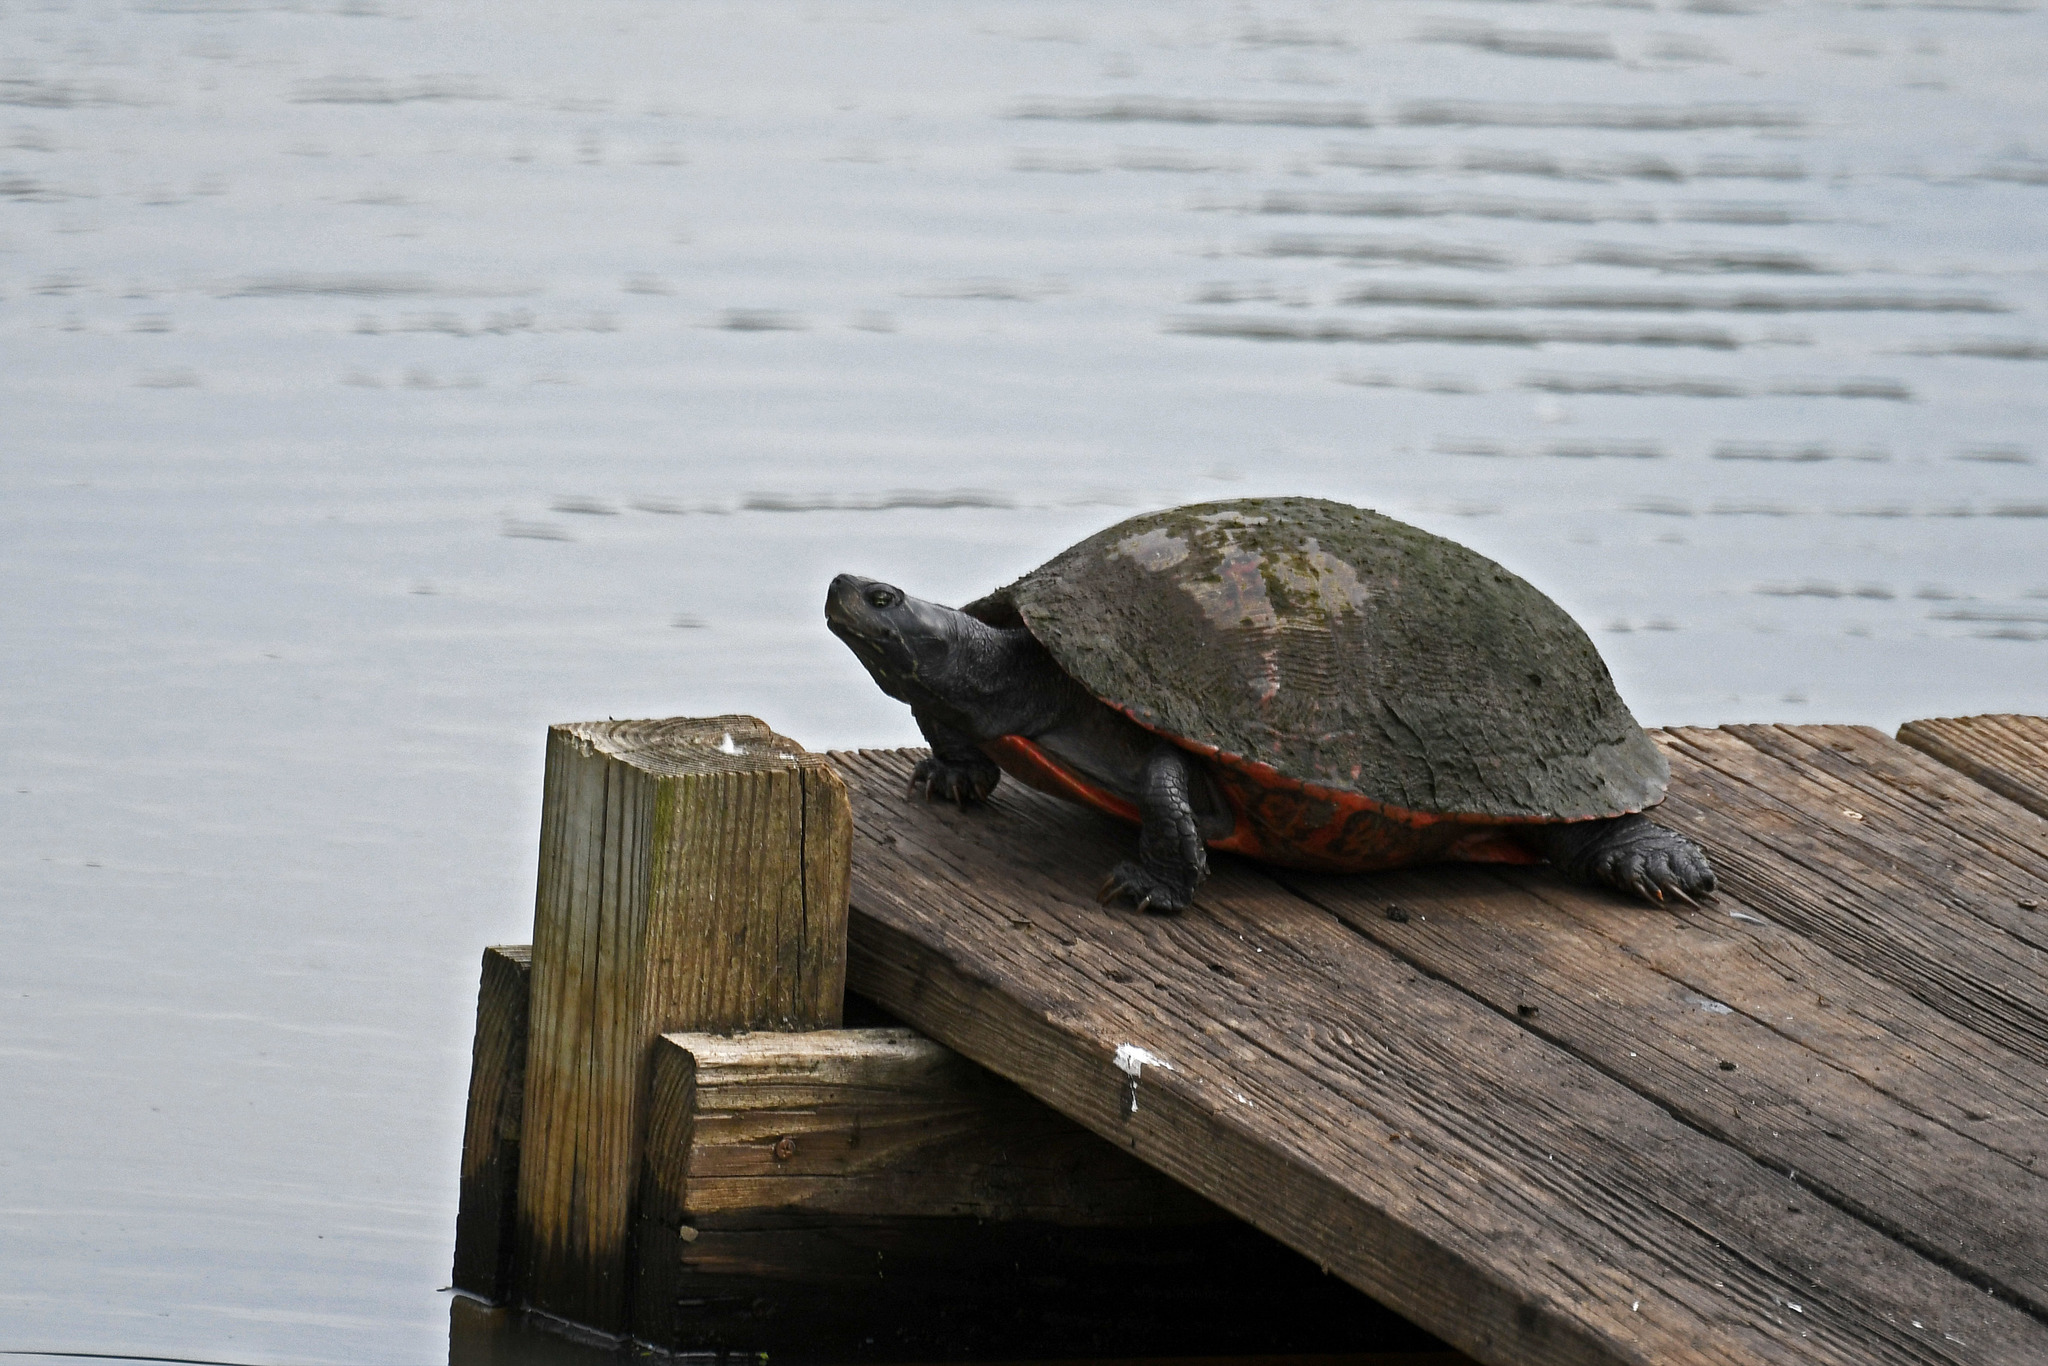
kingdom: Animalia
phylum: Chordata
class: Testudines
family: Emydidae
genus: Pseudemys
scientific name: Pseudemys rubriventris
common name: American red-bellied turtle
